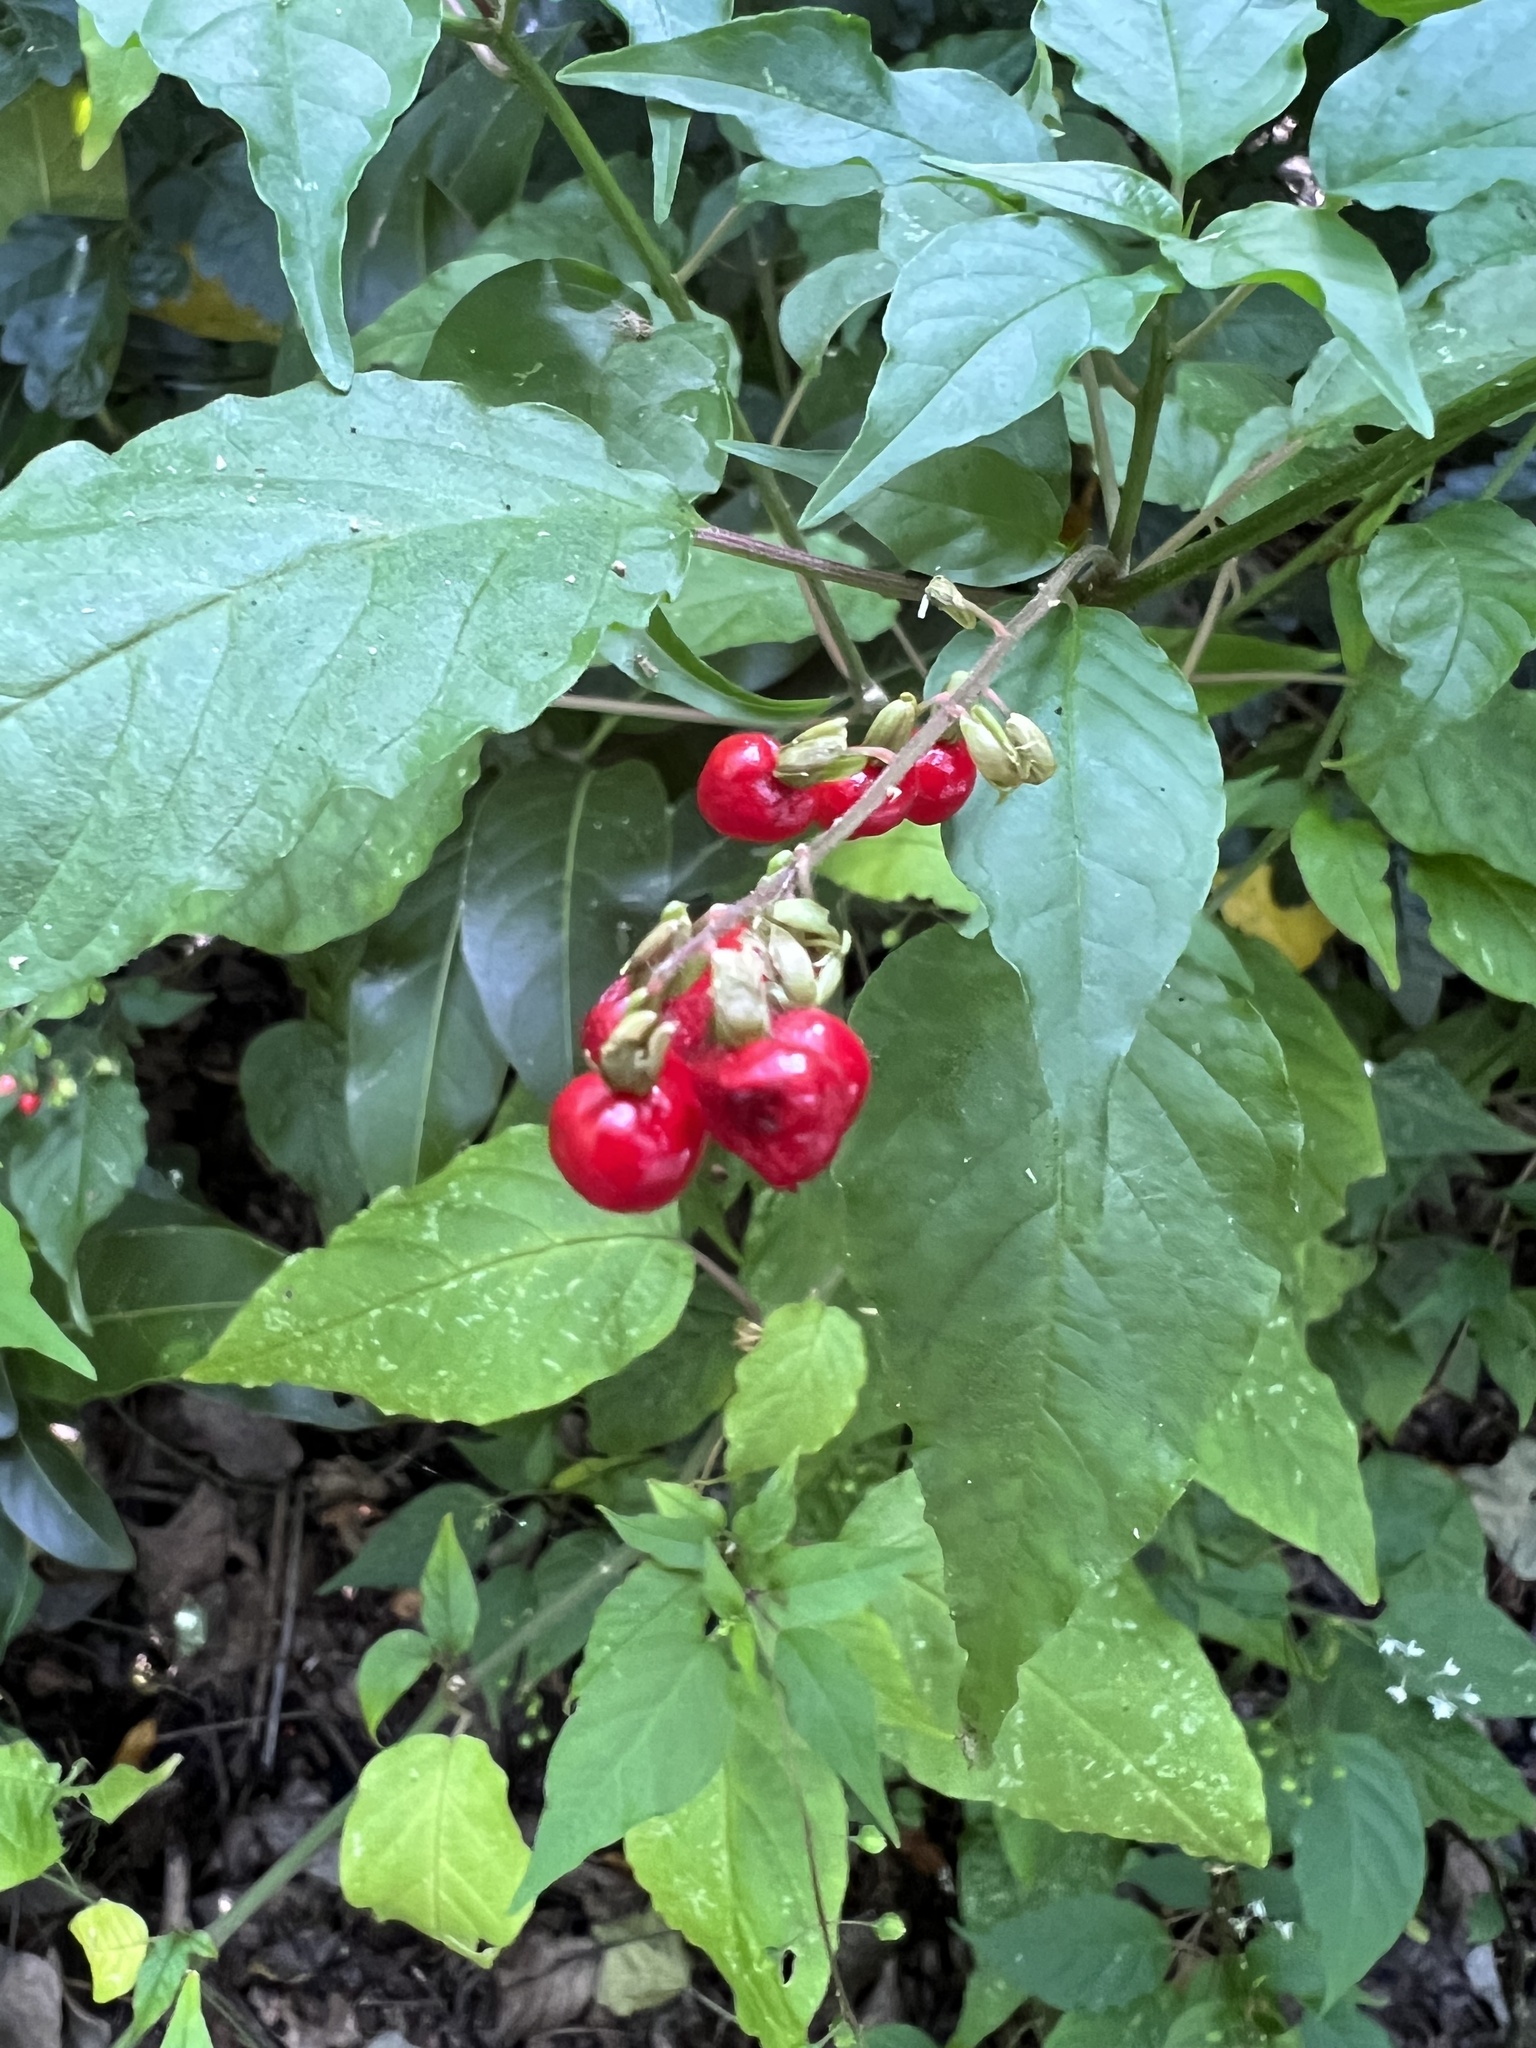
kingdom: Plantae
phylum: Tracheophyta
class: Magnoliopsida
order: Caryophyllales
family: Phytolaccaceae
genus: Rivina
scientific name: Rivina humilis
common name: Rougeplant
